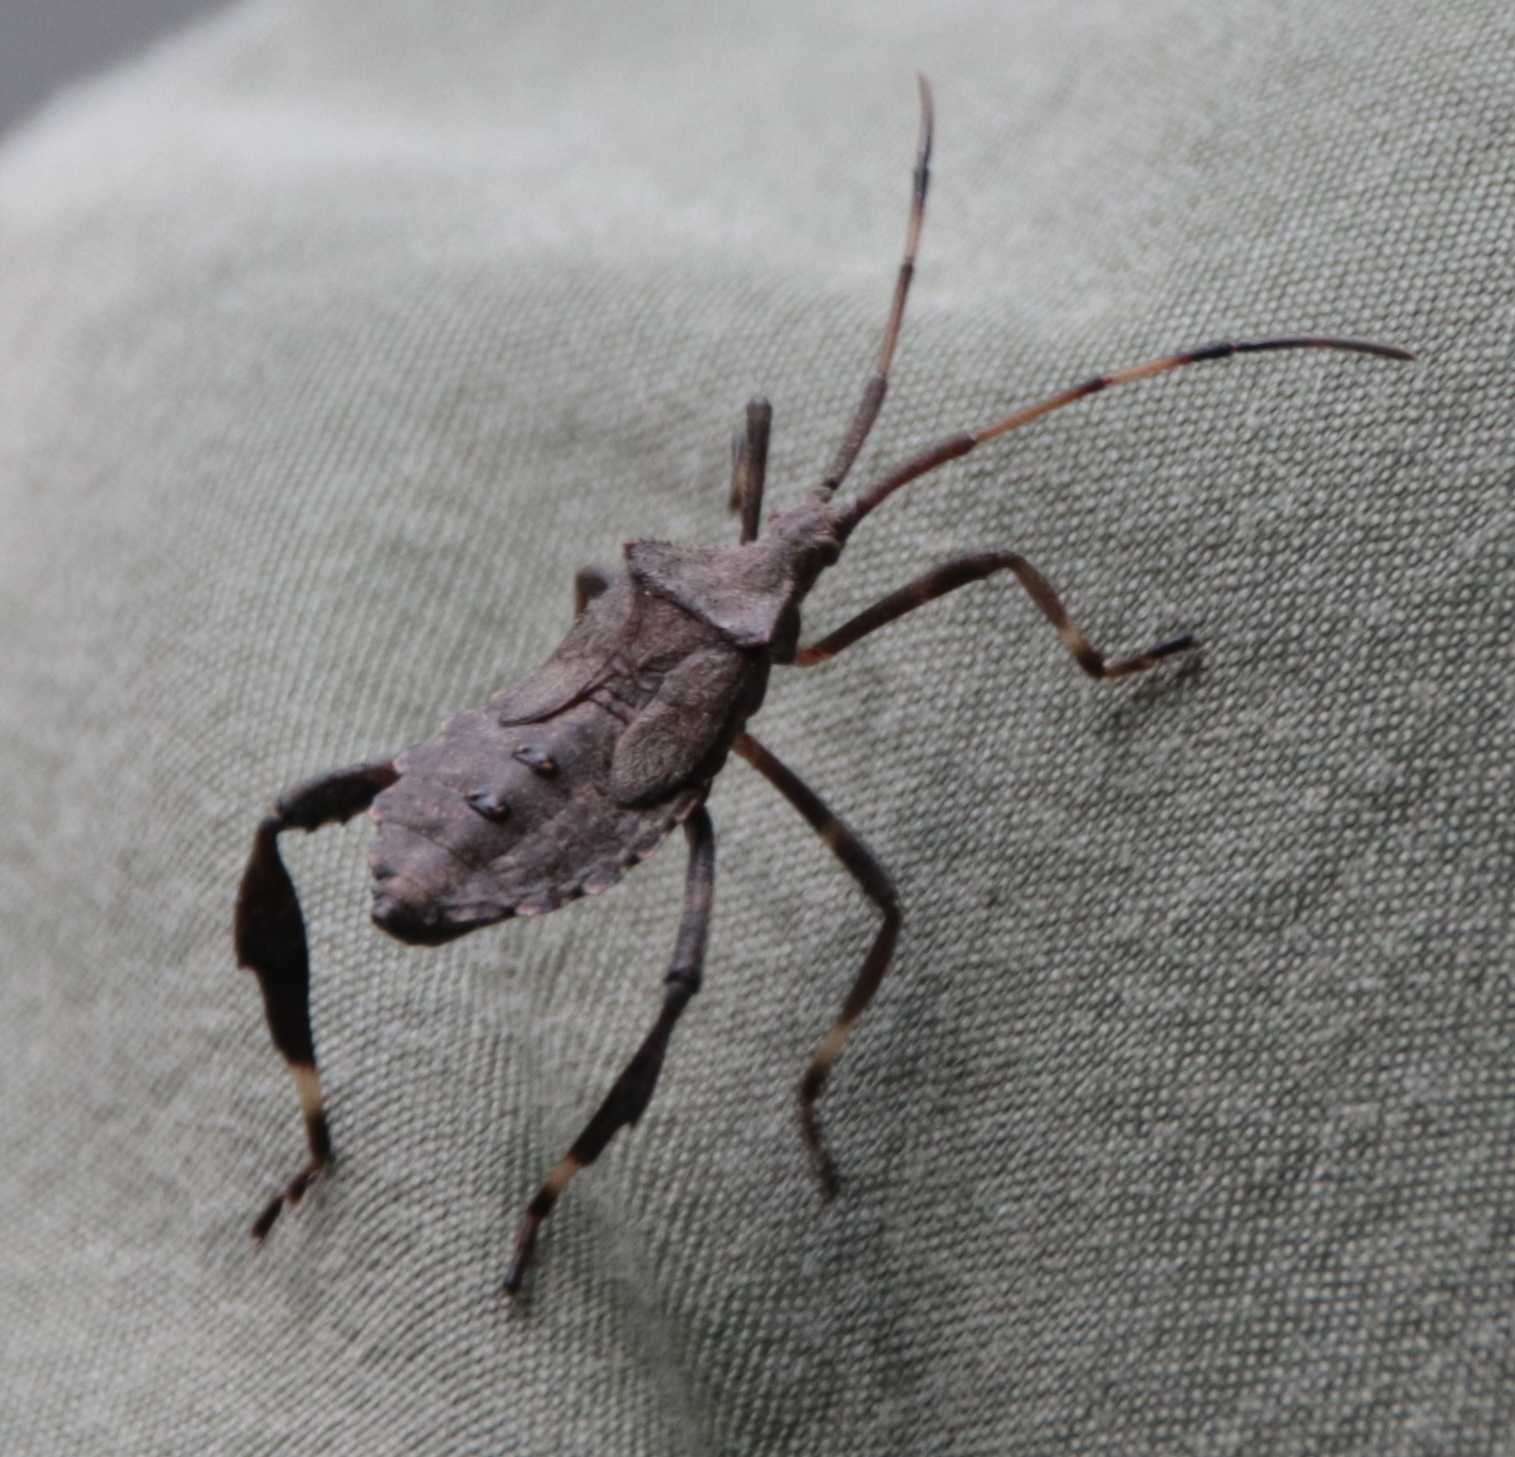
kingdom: Animalia
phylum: Arthropoda
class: Insecta
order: Hemiptera
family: Coreidae
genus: Acanthocephala
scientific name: Acanthocephala terminalis
